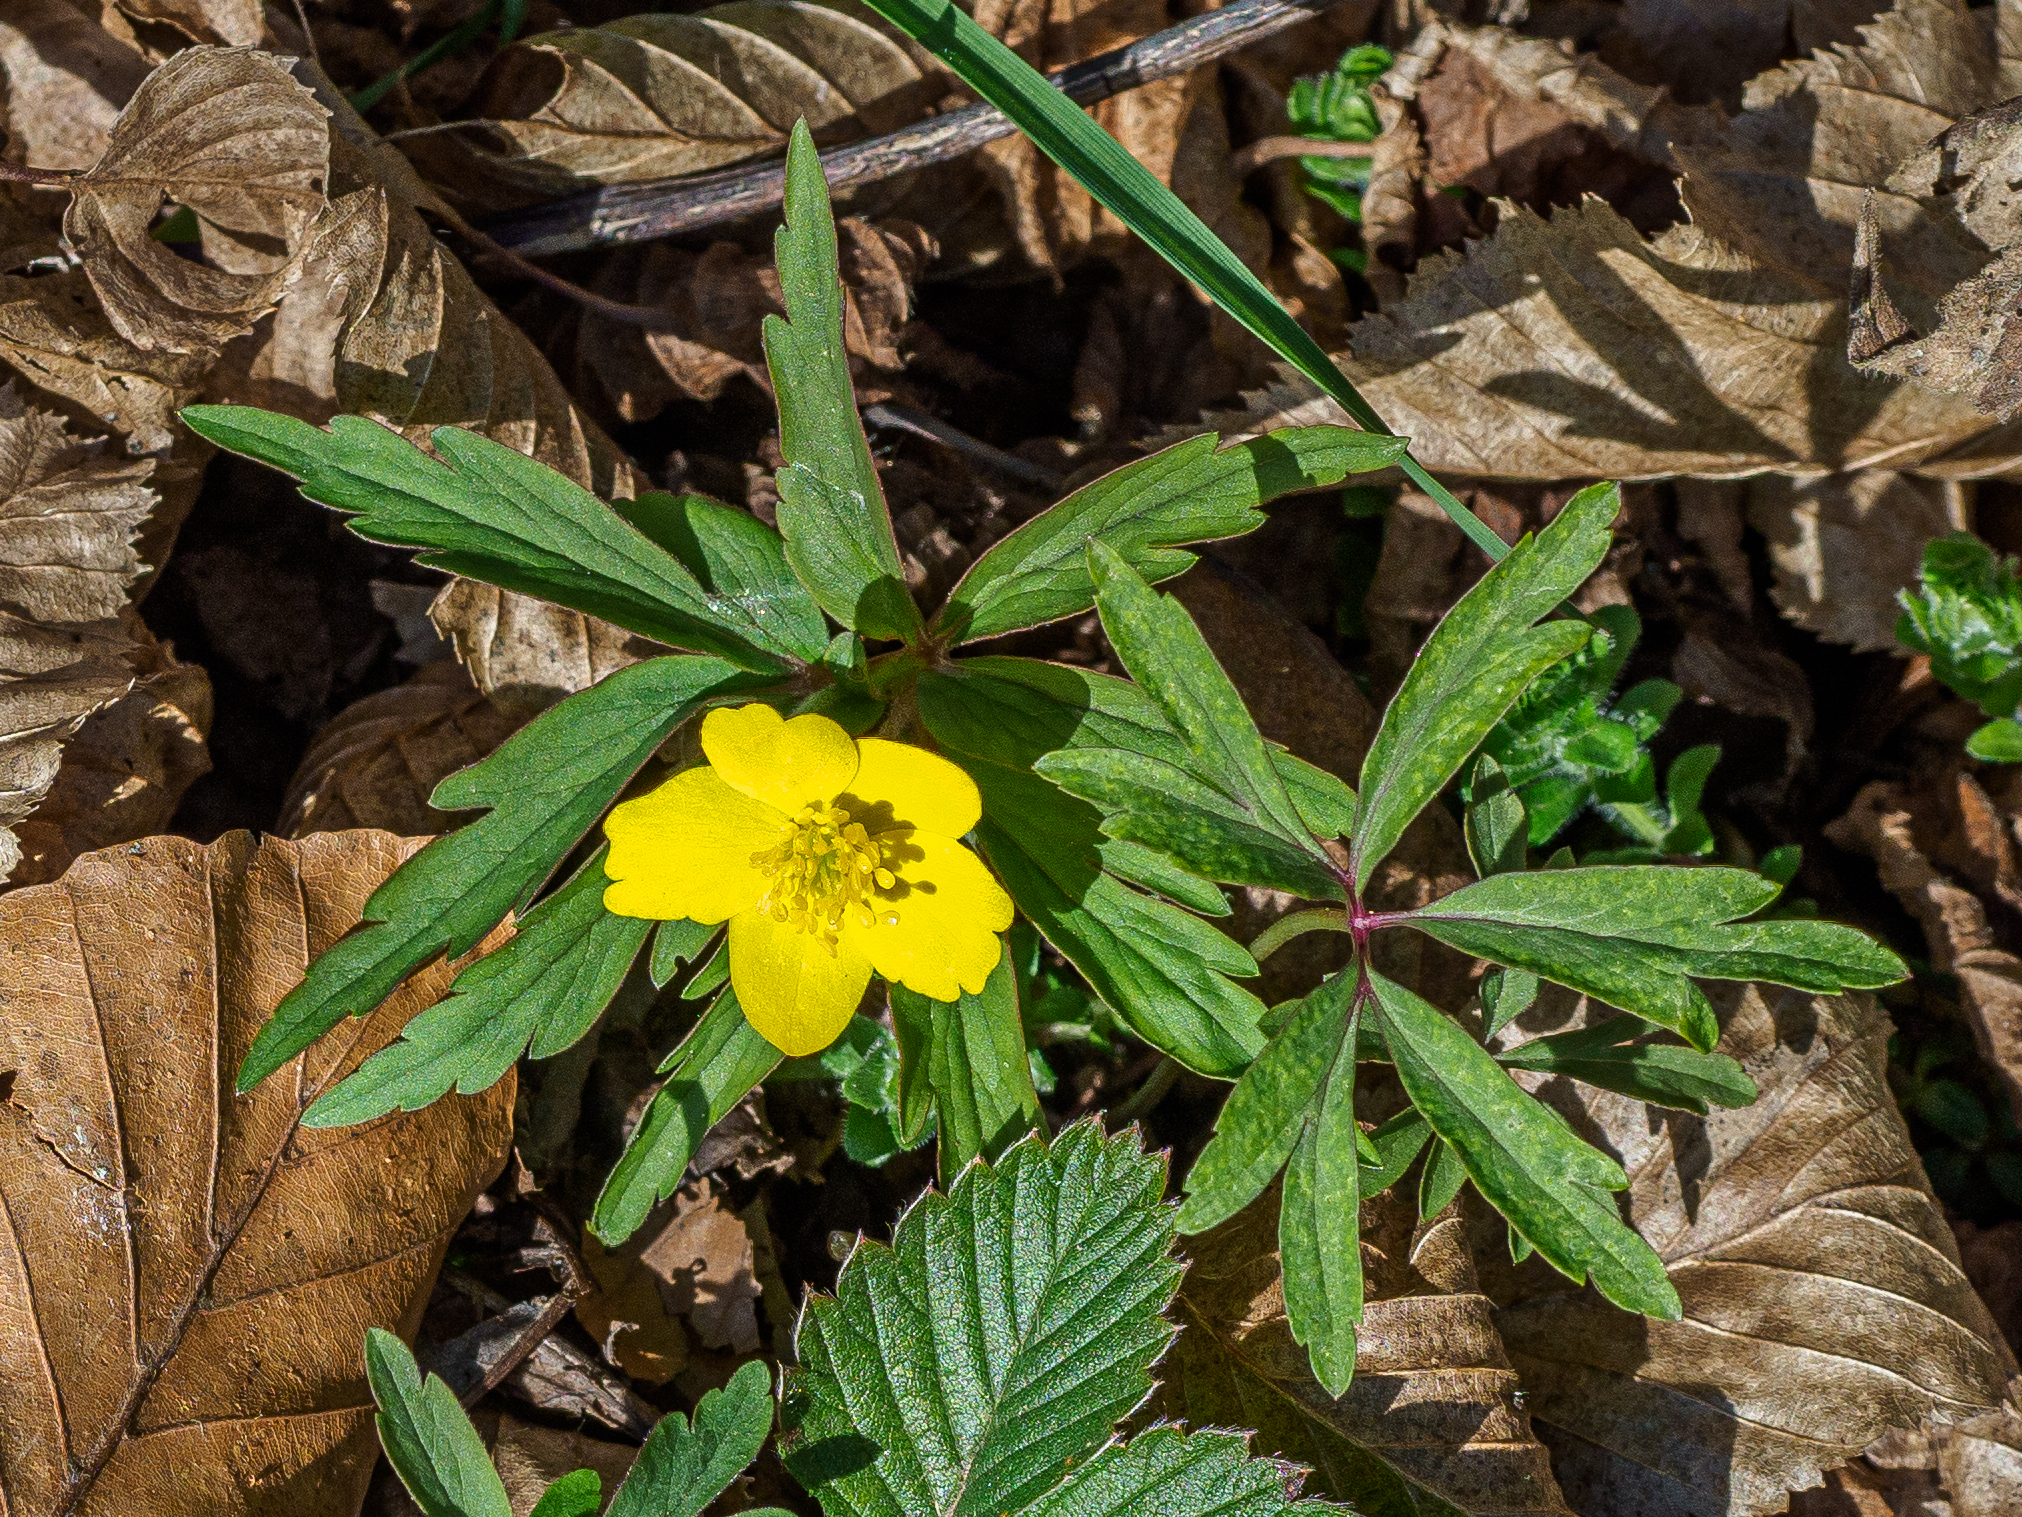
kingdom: Plantae
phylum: Tracheophyta
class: Magnoliopsida
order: Ranunculales
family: Ranunculaceae
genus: Anemone
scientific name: Anemone ranunculoides
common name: Yellow anemone
